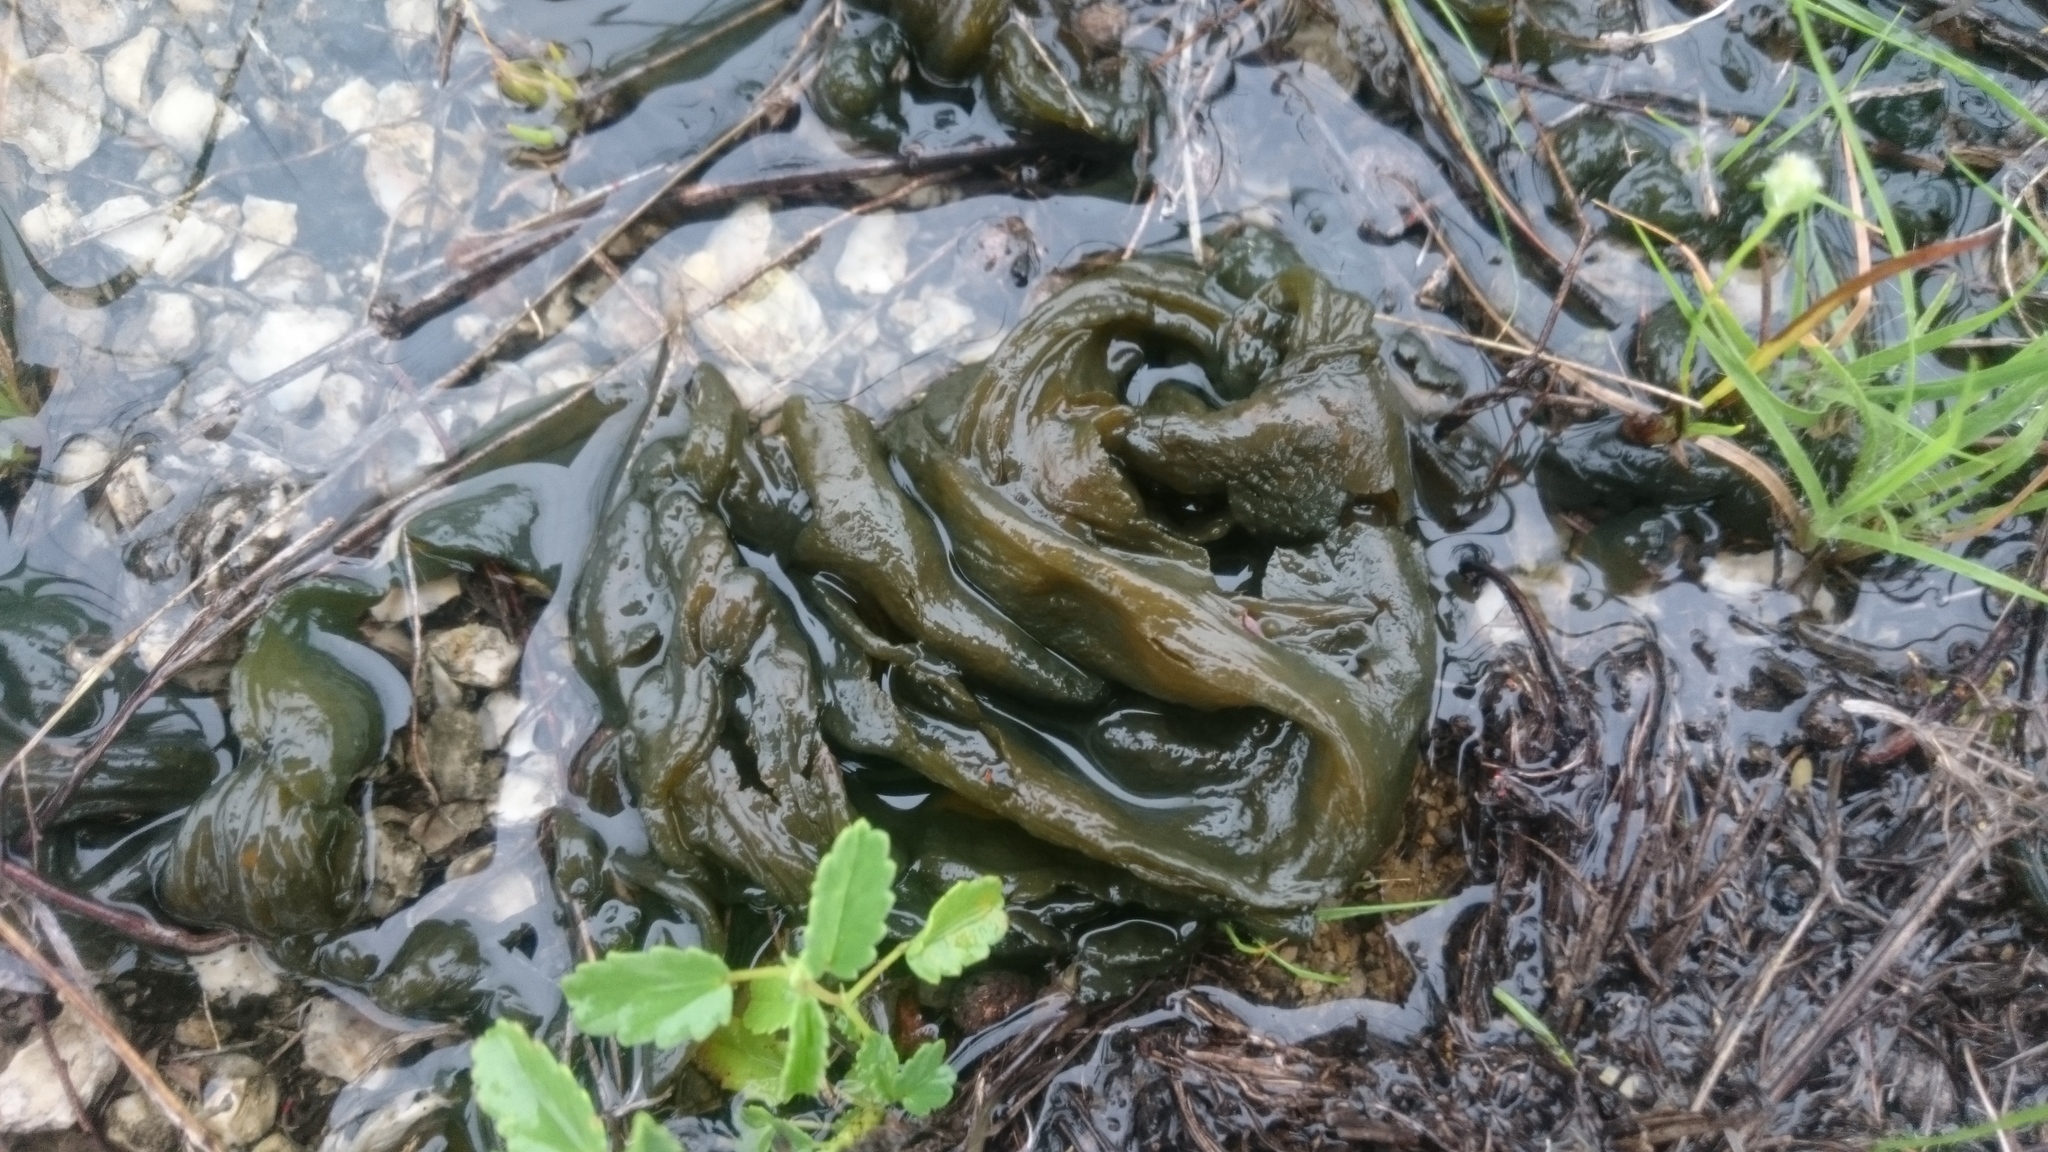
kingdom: Bacteria
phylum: Cyanobacteria
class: Cyanobacteriia
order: Cyanobacteriales
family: Nostocaceae
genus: Nostoc
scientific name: Nostoc commune
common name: Star jelly
